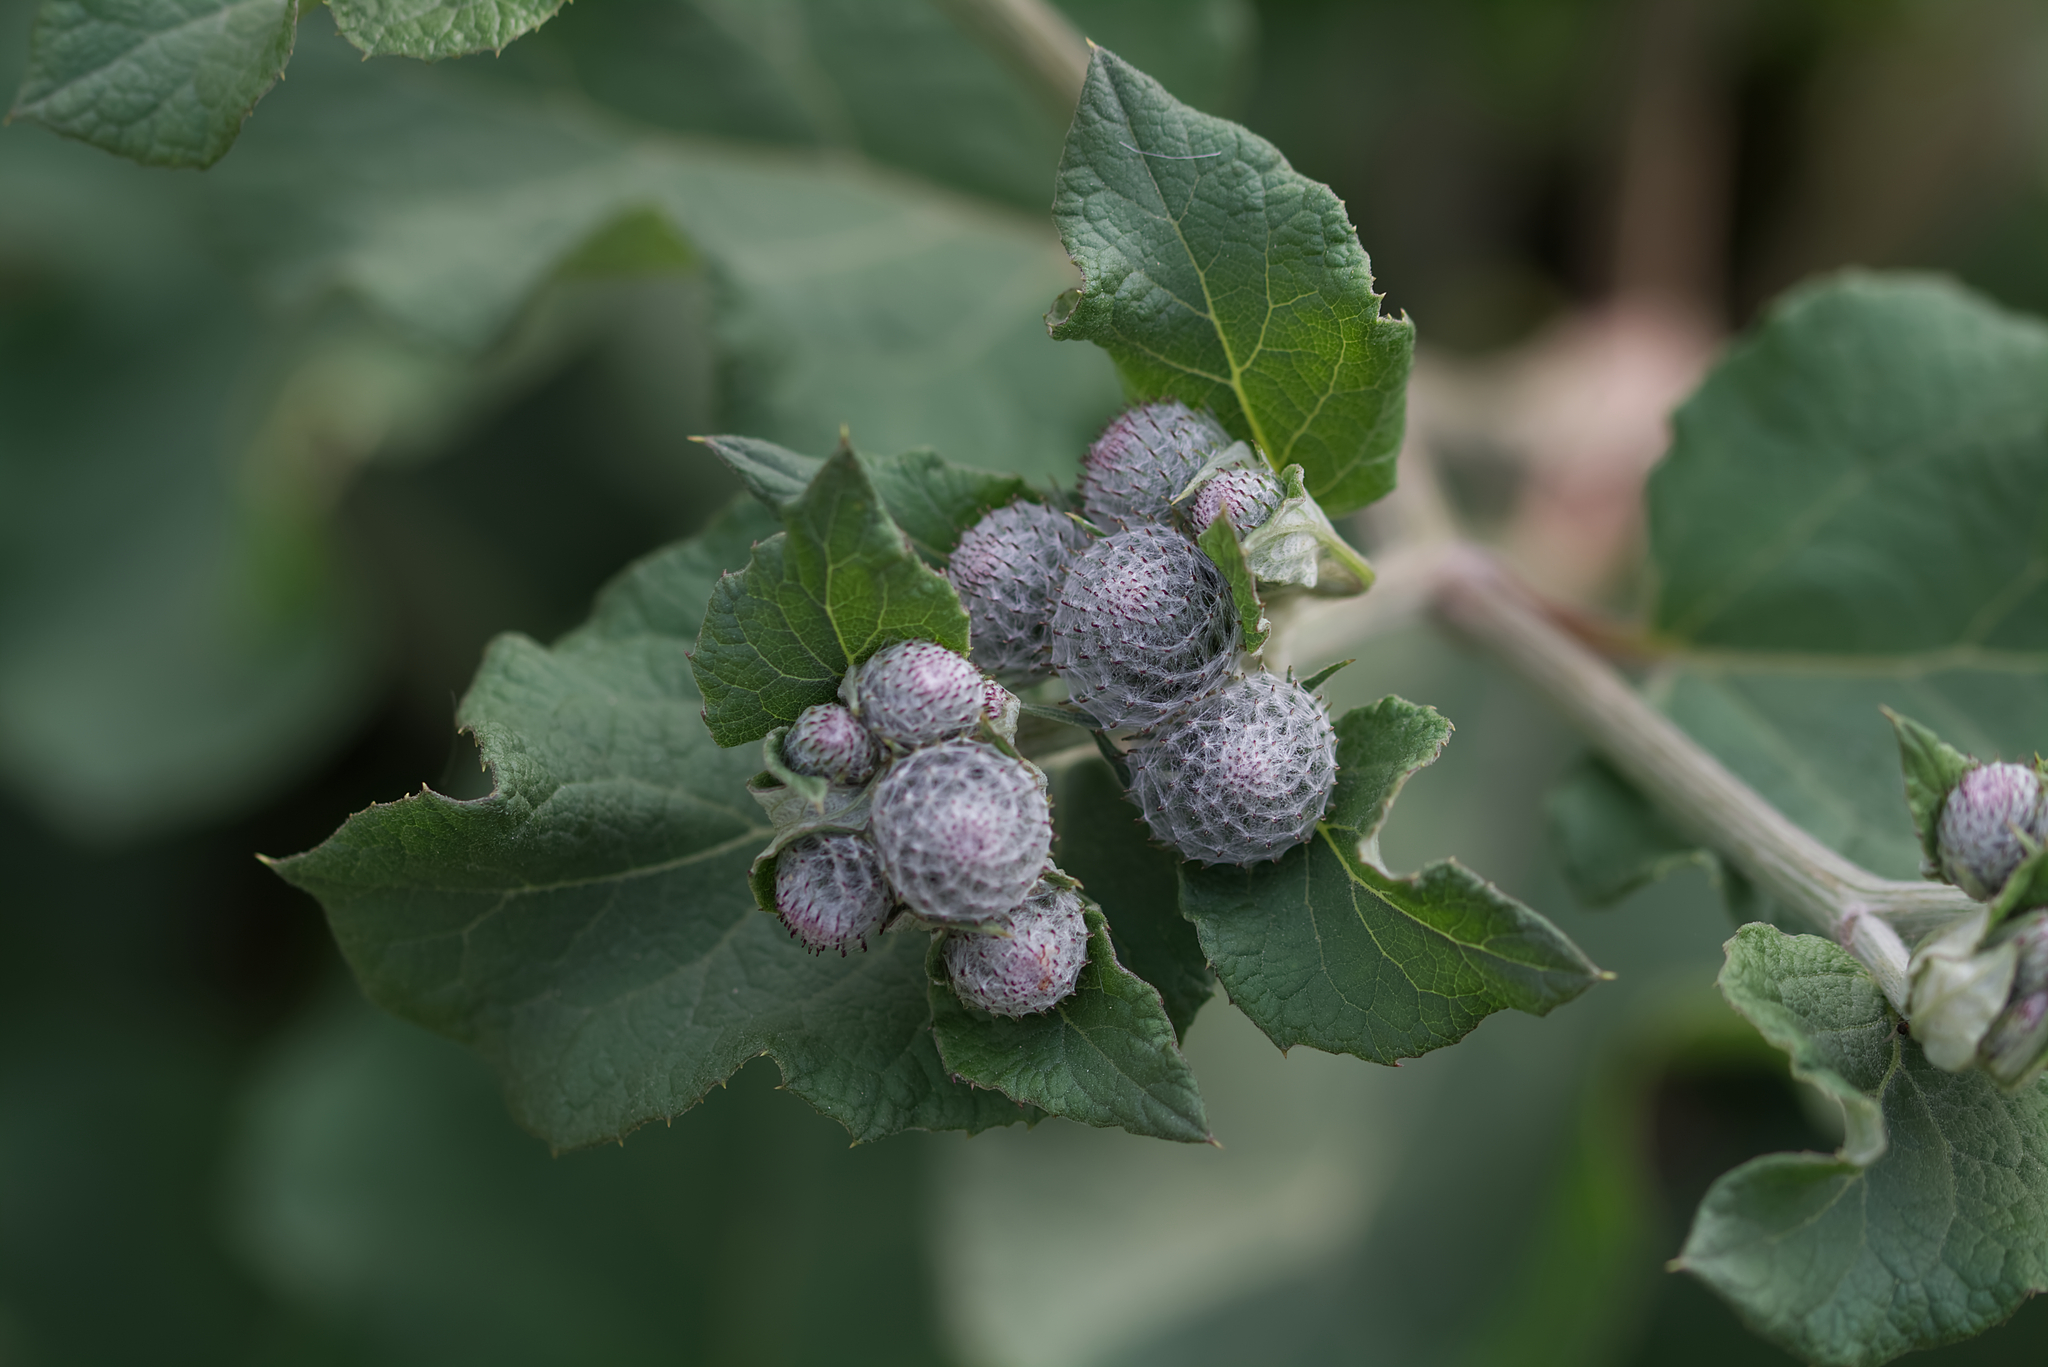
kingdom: Plantae
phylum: Tracheophyta
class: Magnoliopsida
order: Asterales
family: Asteraceae
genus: Arctium
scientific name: Arctium tomentosum
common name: Woolly burdock
